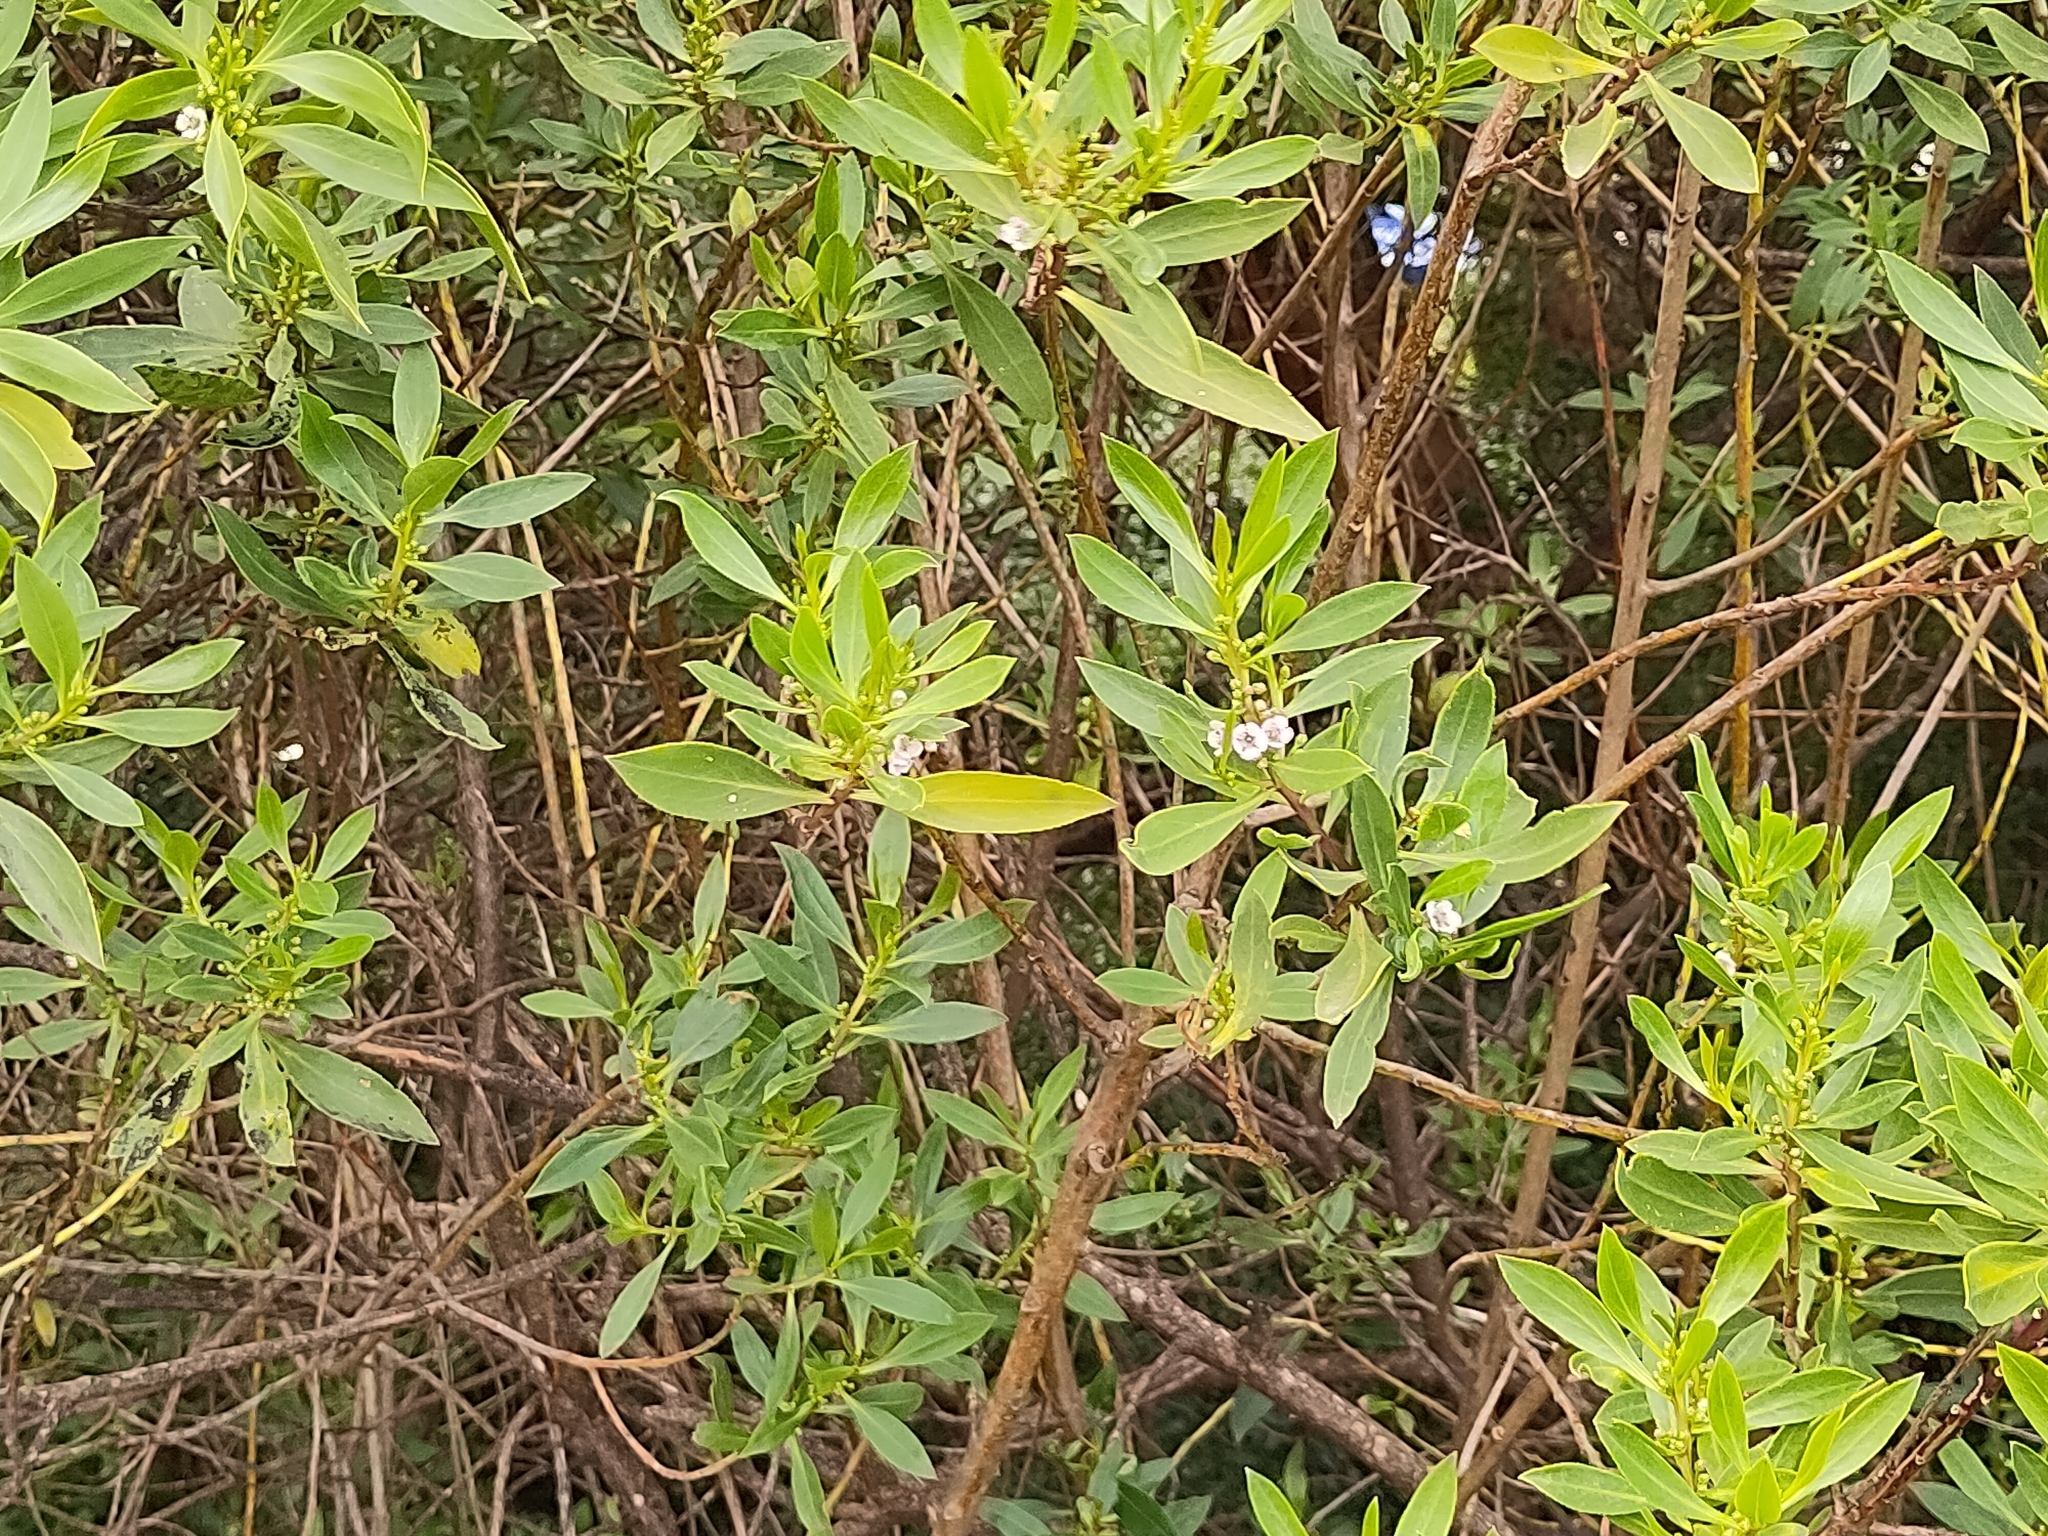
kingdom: Plantae
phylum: Tracheophyta
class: Magnoliopsida
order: Lamiales
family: Scrophulariaceae
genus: Myoporum
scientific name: Myoporum insulare
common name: Common boobialla
